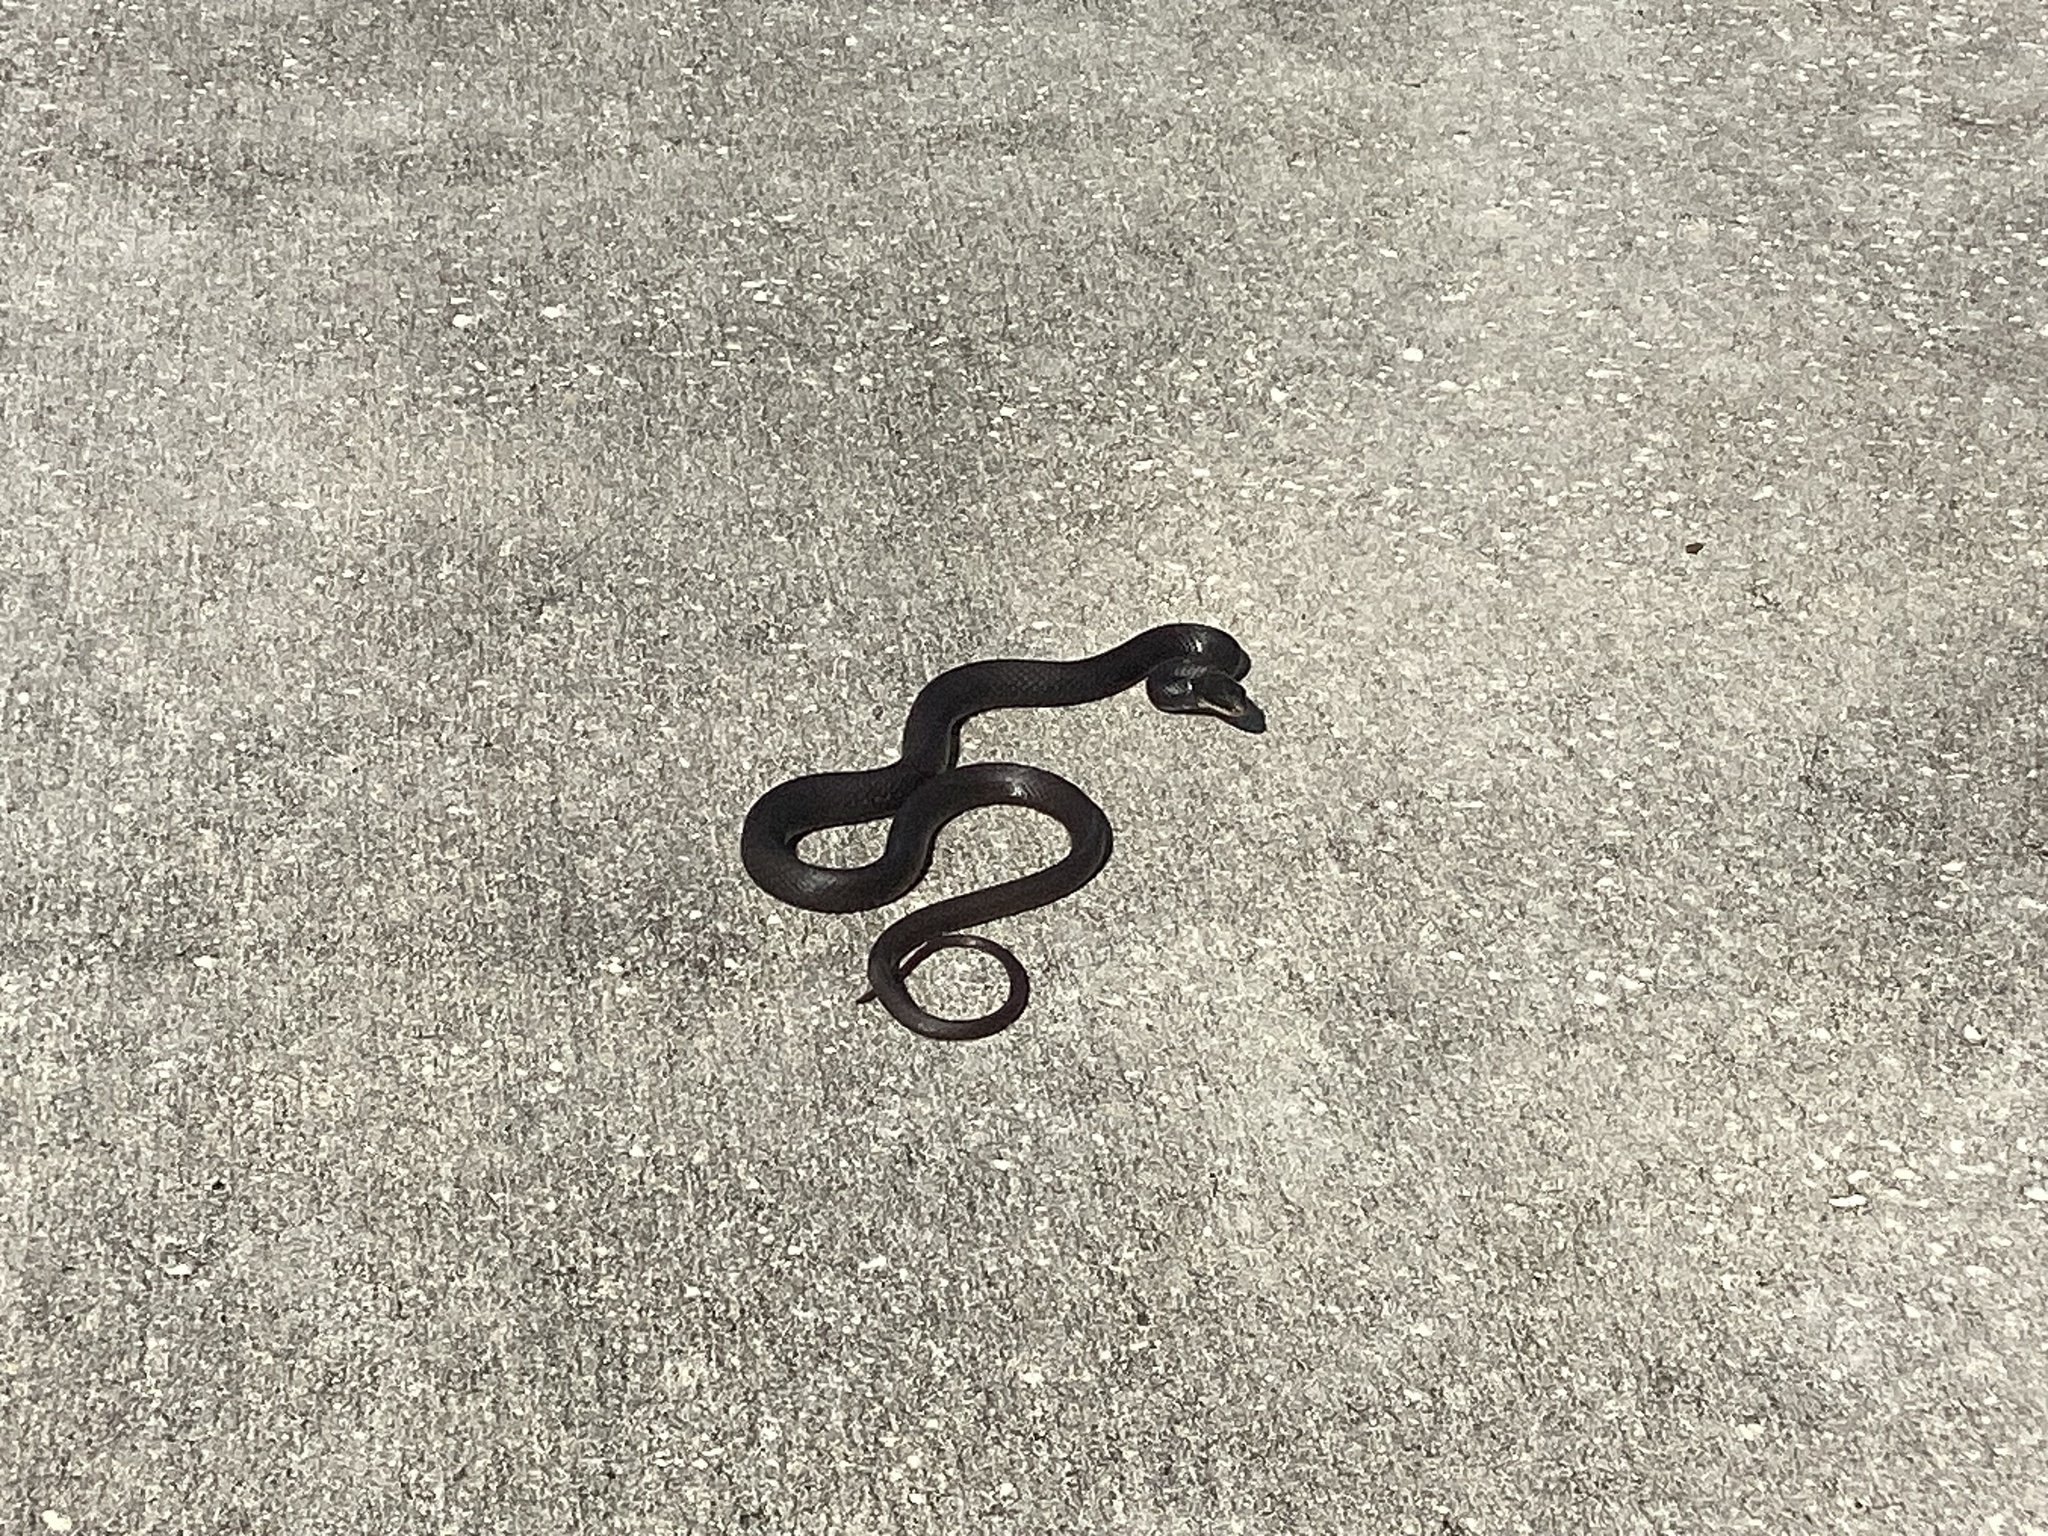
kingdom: Animalia
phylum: Chordata
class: Squamata
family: Colubridae
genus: Coluber
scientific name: Coluber constrictor
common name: Eastern racer
